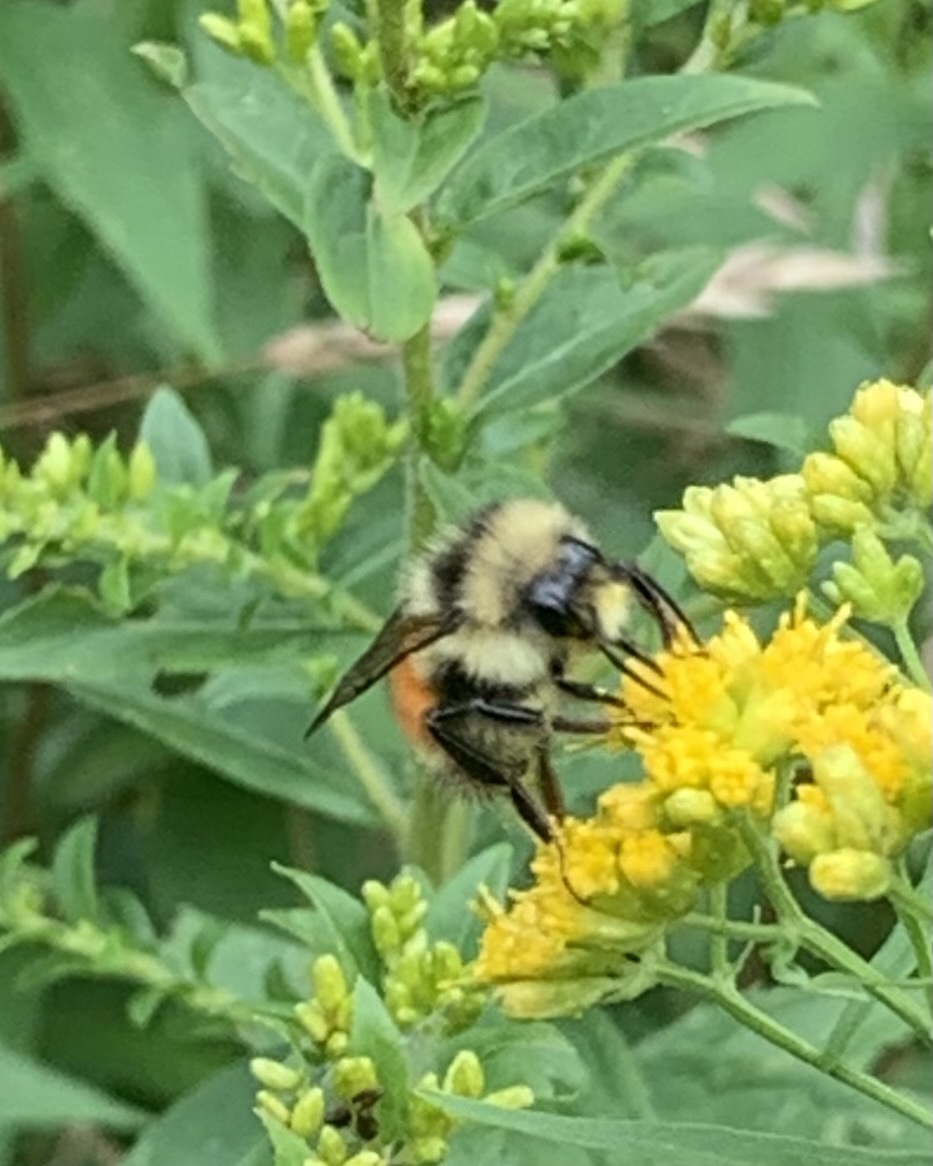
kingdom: Animalia
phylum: Arthropoda
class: Insecta
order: Hymenoptera
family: Apidae
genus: Bombus
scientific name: Bombus ternarius
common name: Tri-colored bumble bee
